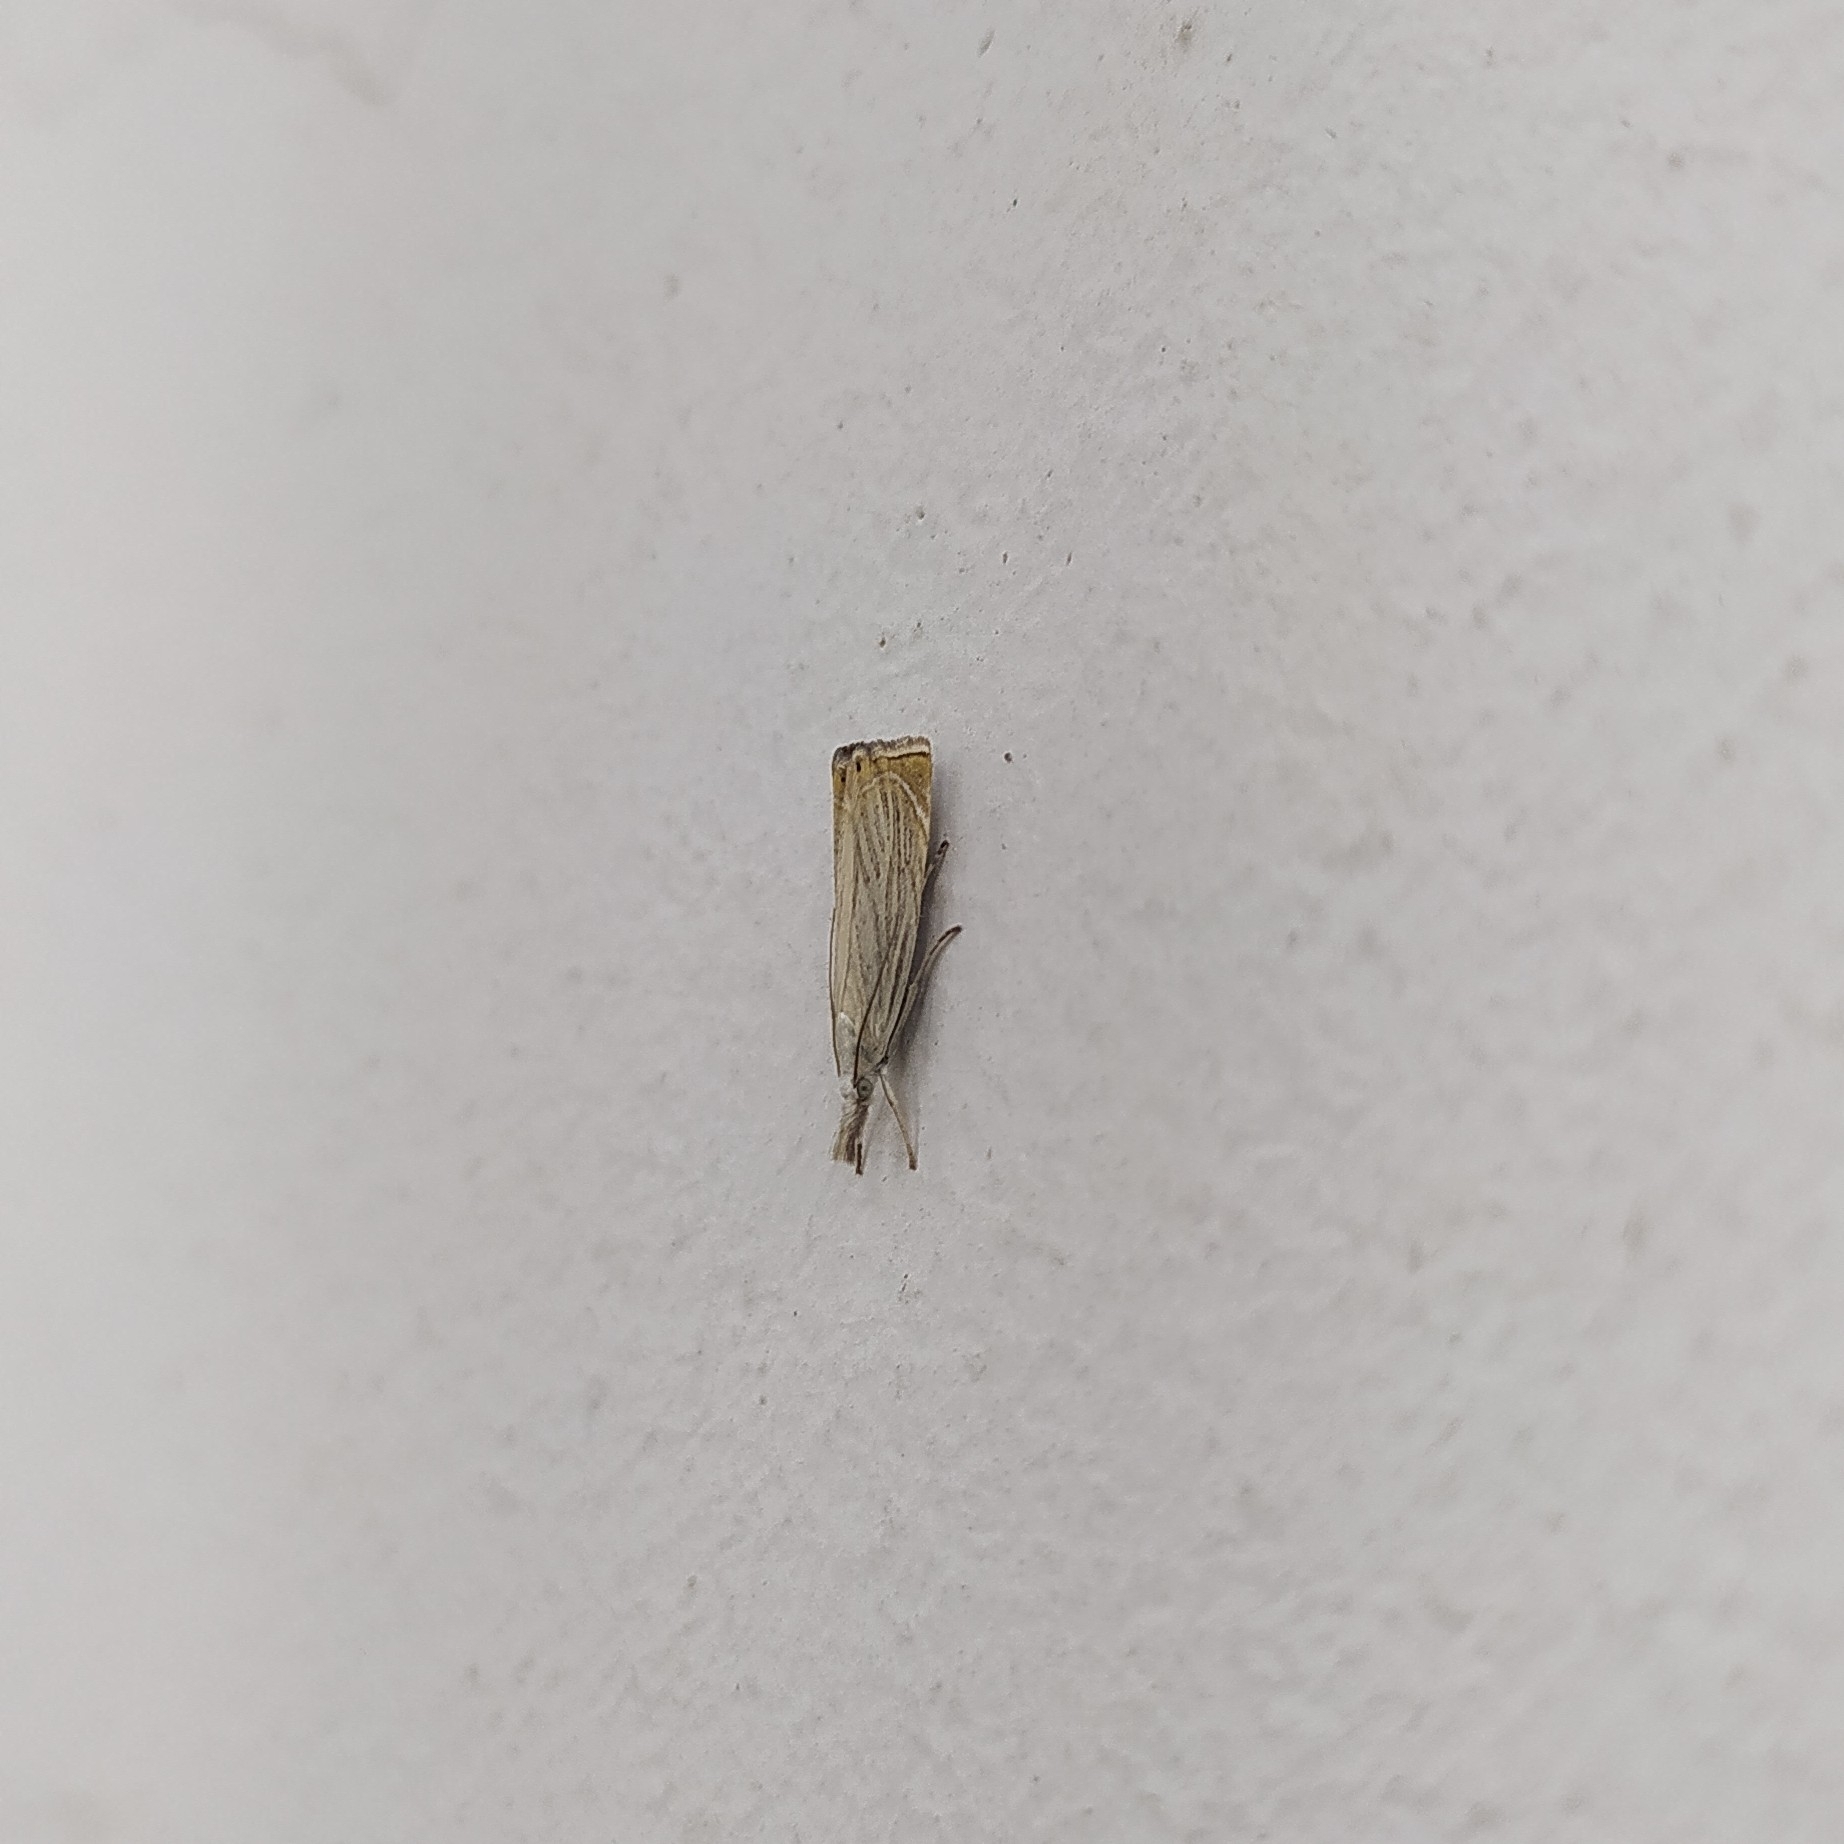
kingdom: Animalia
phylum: Arthropoda
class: Insecta
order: Lepidoptera
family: Crambidae
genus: Chrysoteuchia
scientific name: Chrysoteuchia culmella
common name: Garden grass-veneer
